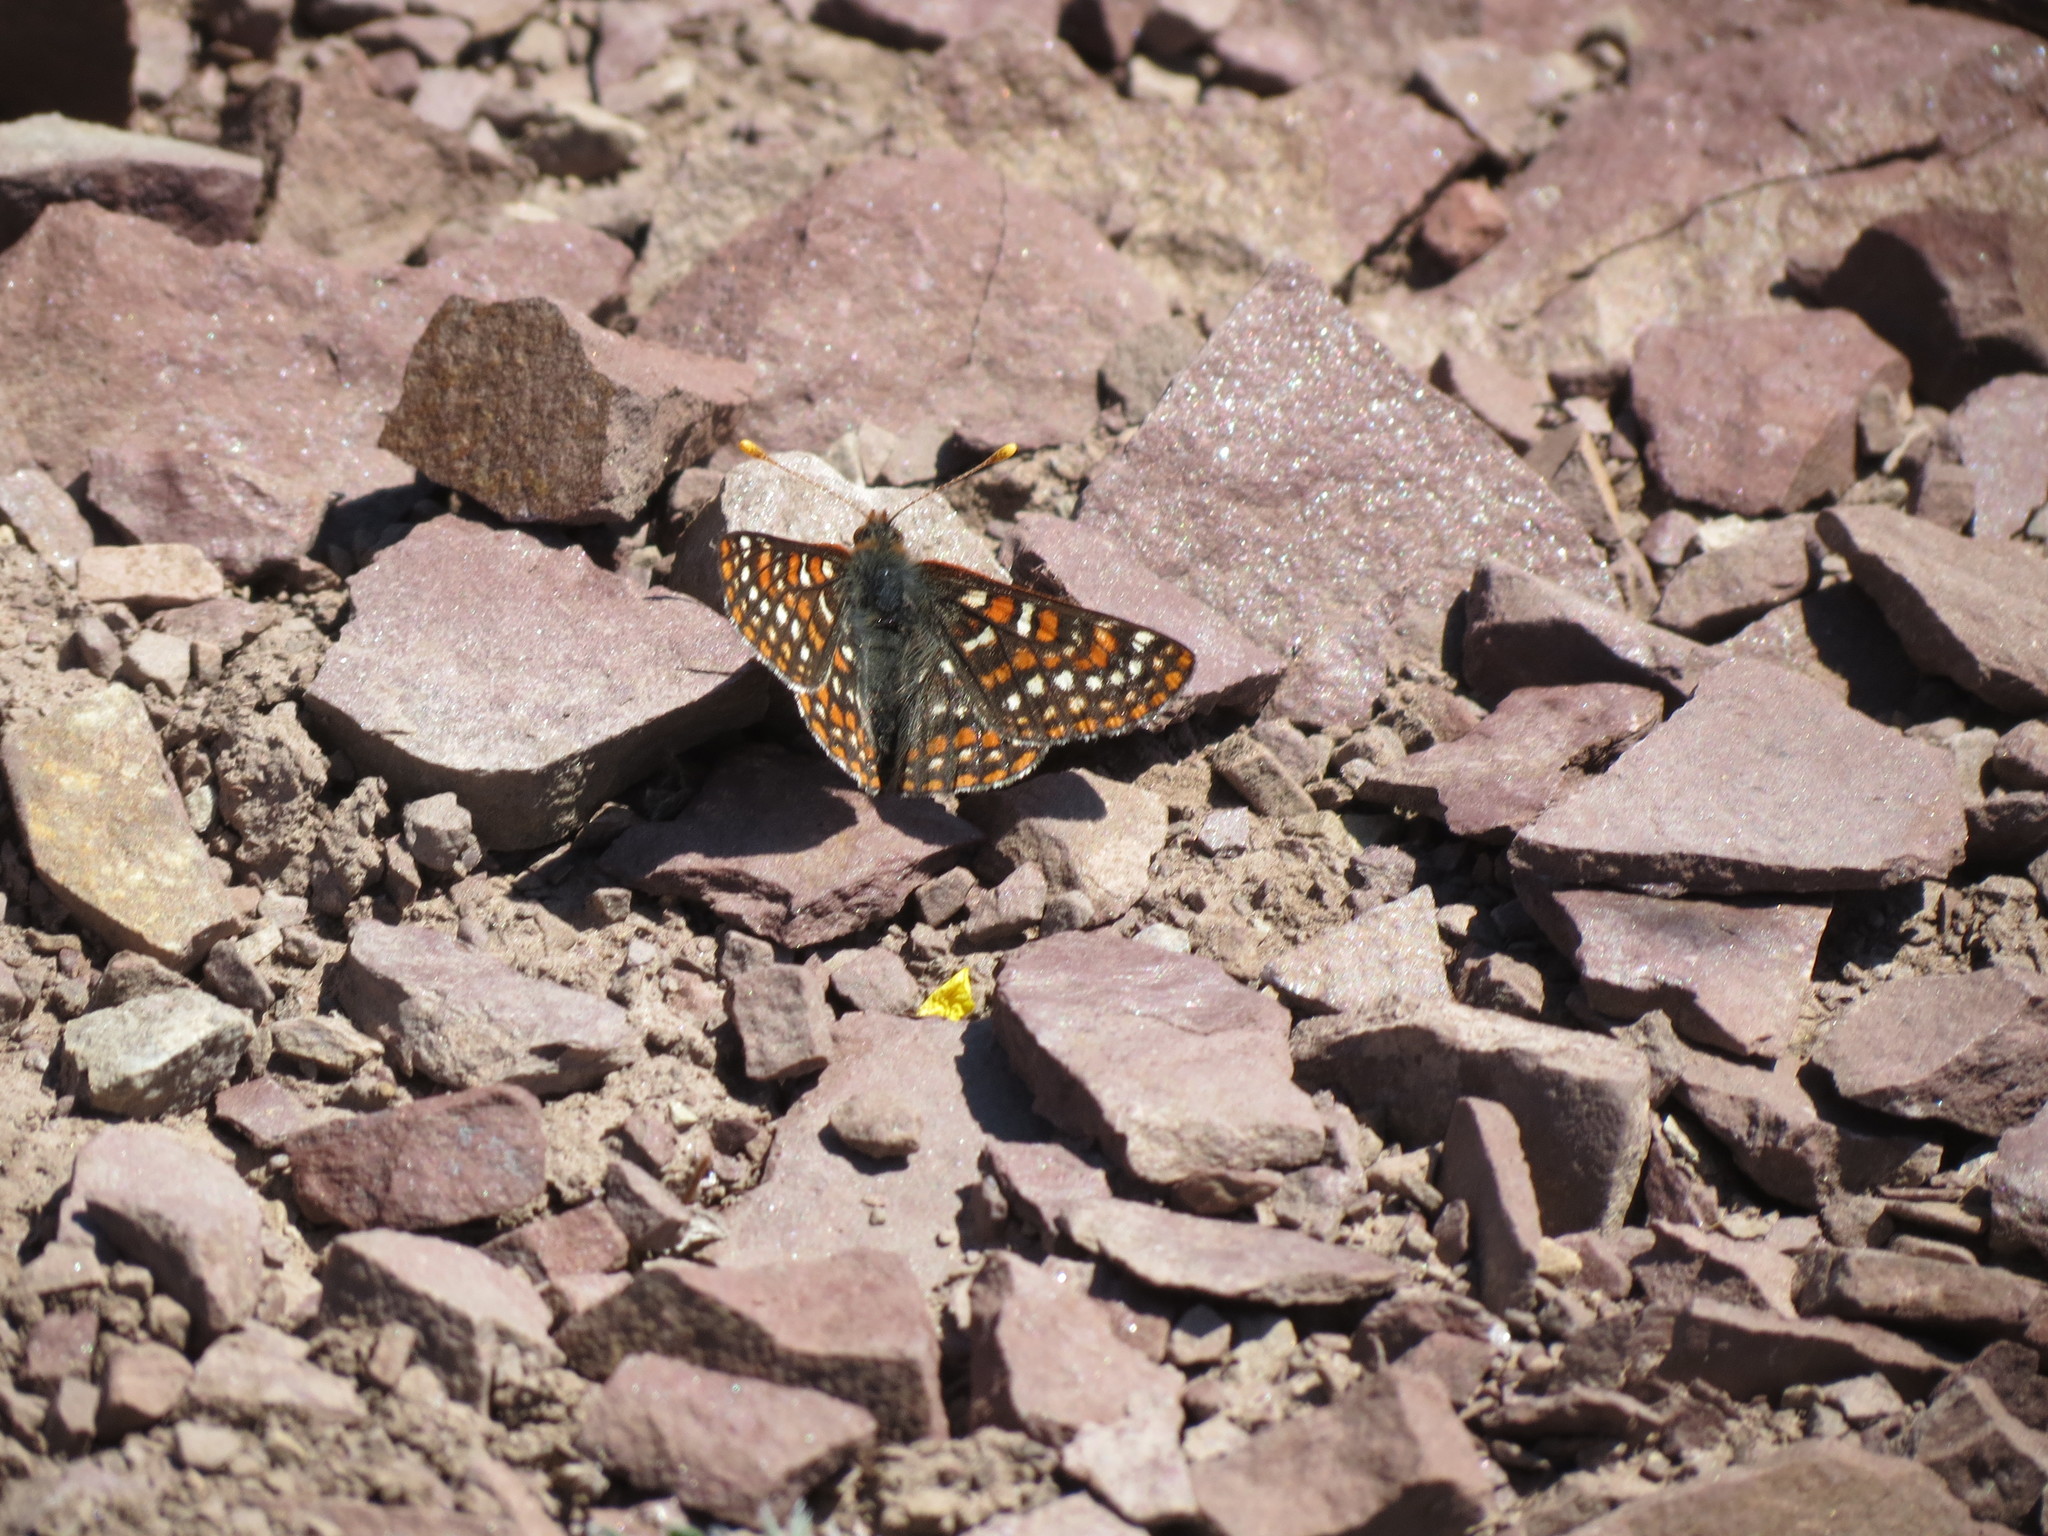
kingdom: Animalia
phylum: Arthropoda
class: Insecta
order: Lepidoptera
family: Nymphalidae
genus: Occidryas
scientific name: Occidryas editha
